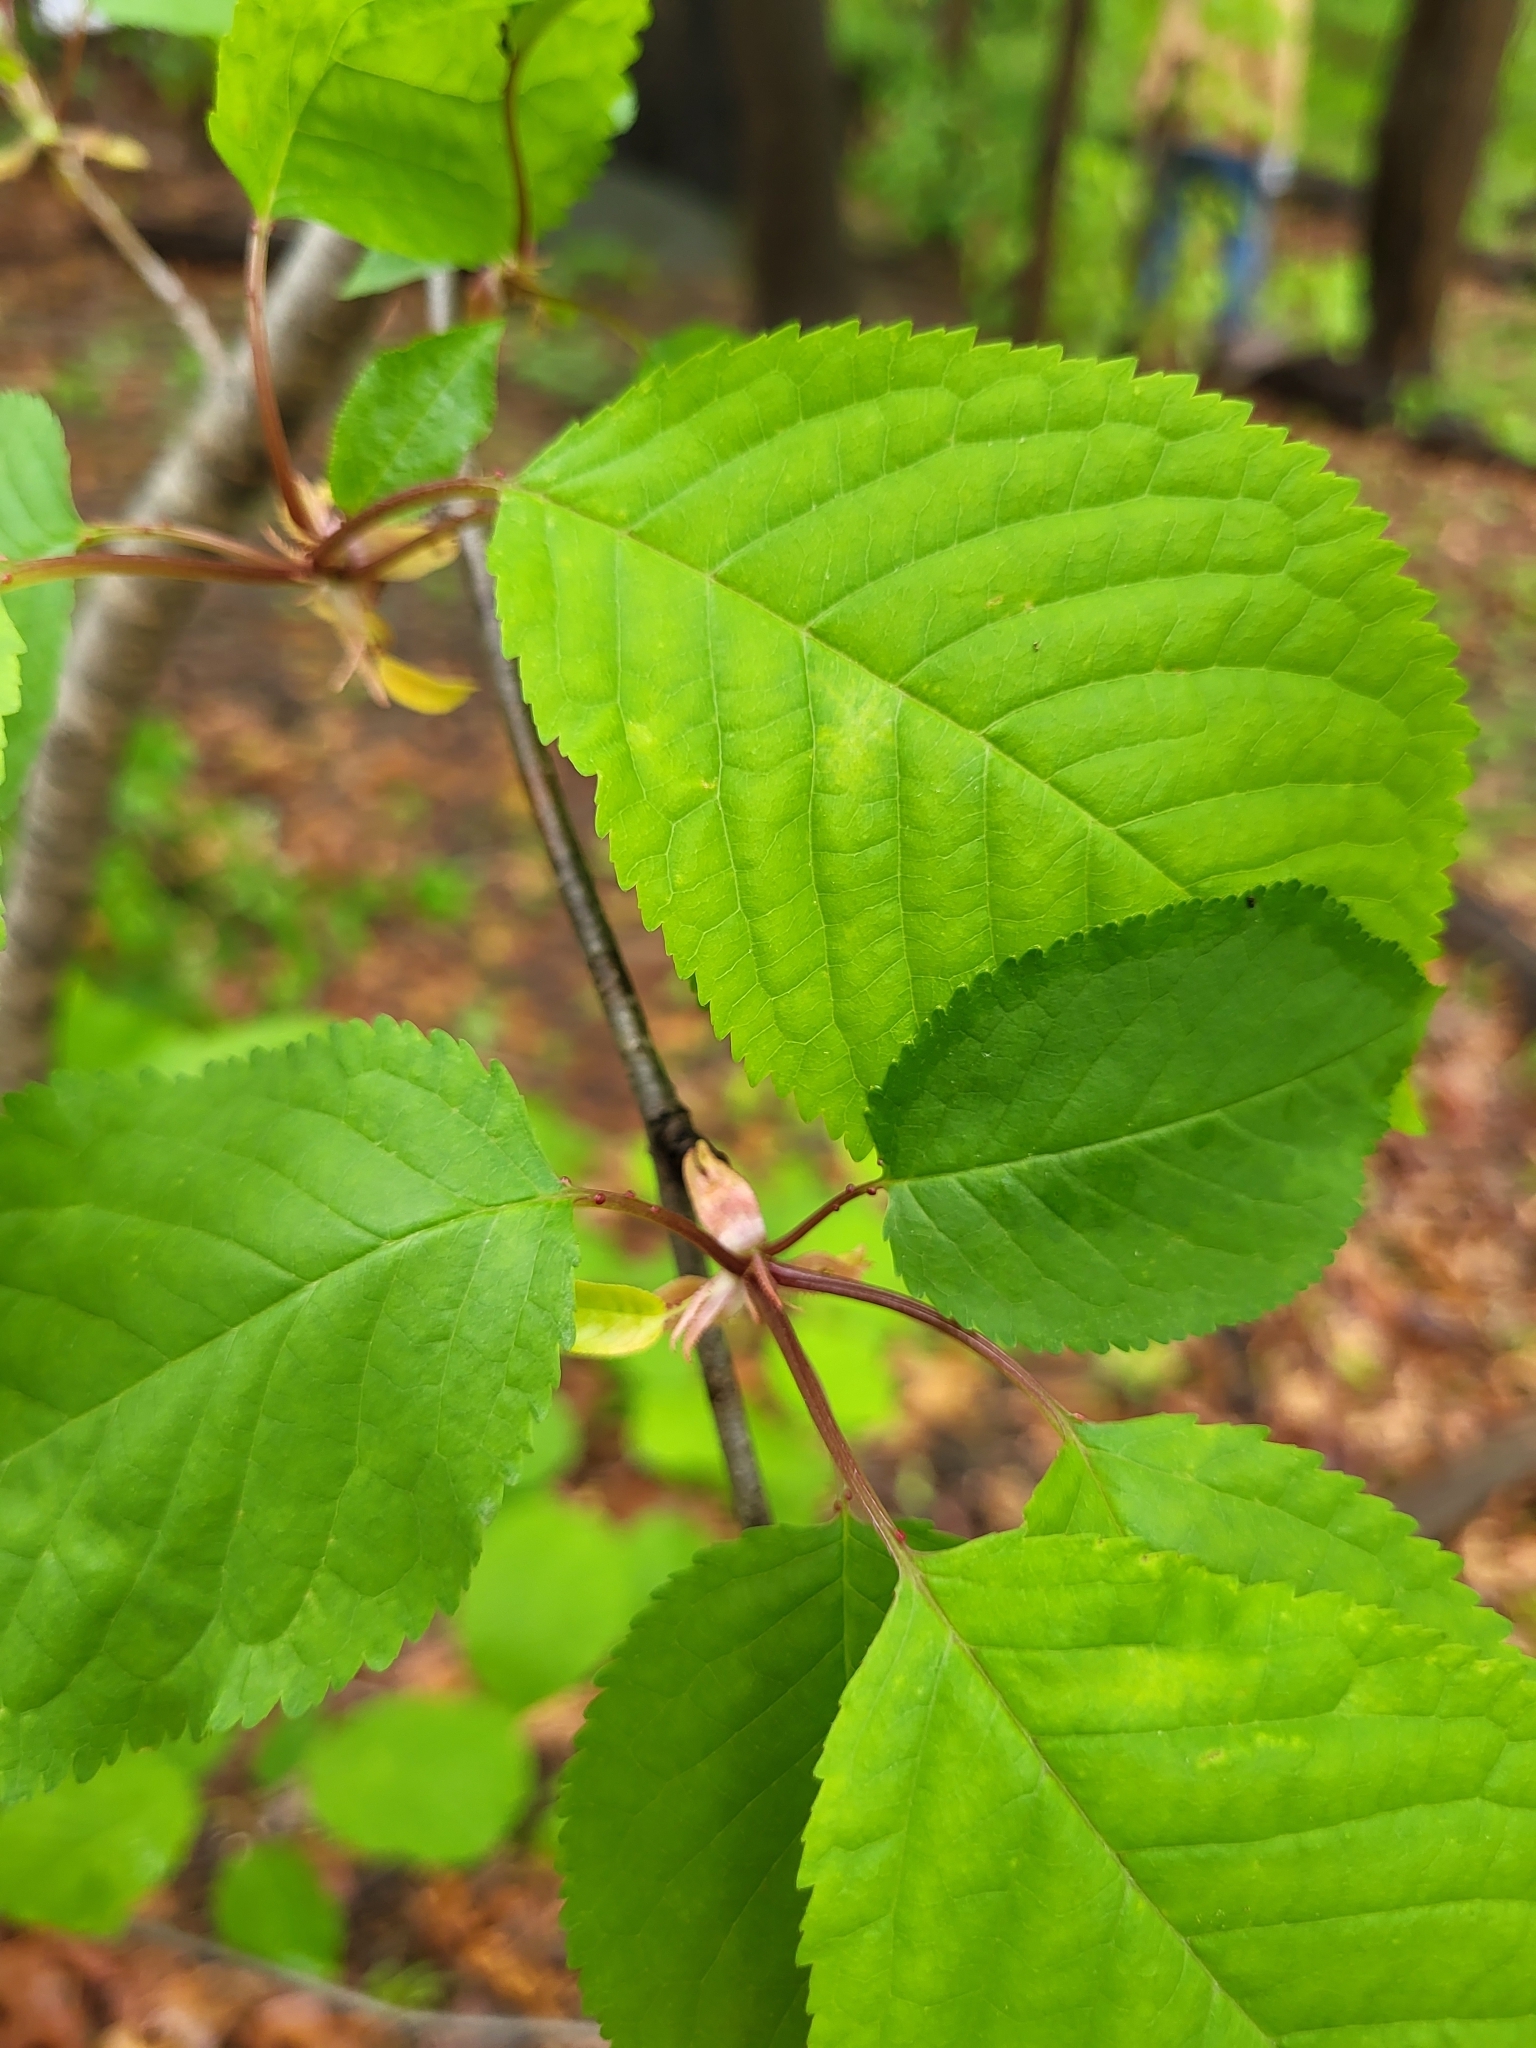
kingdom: Plantae
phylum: Tracheophyta
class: Magnoliopsida
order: Rosales
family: Rosaceae
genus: Prunus
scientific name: Prunus avium
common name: Sweet cherry
